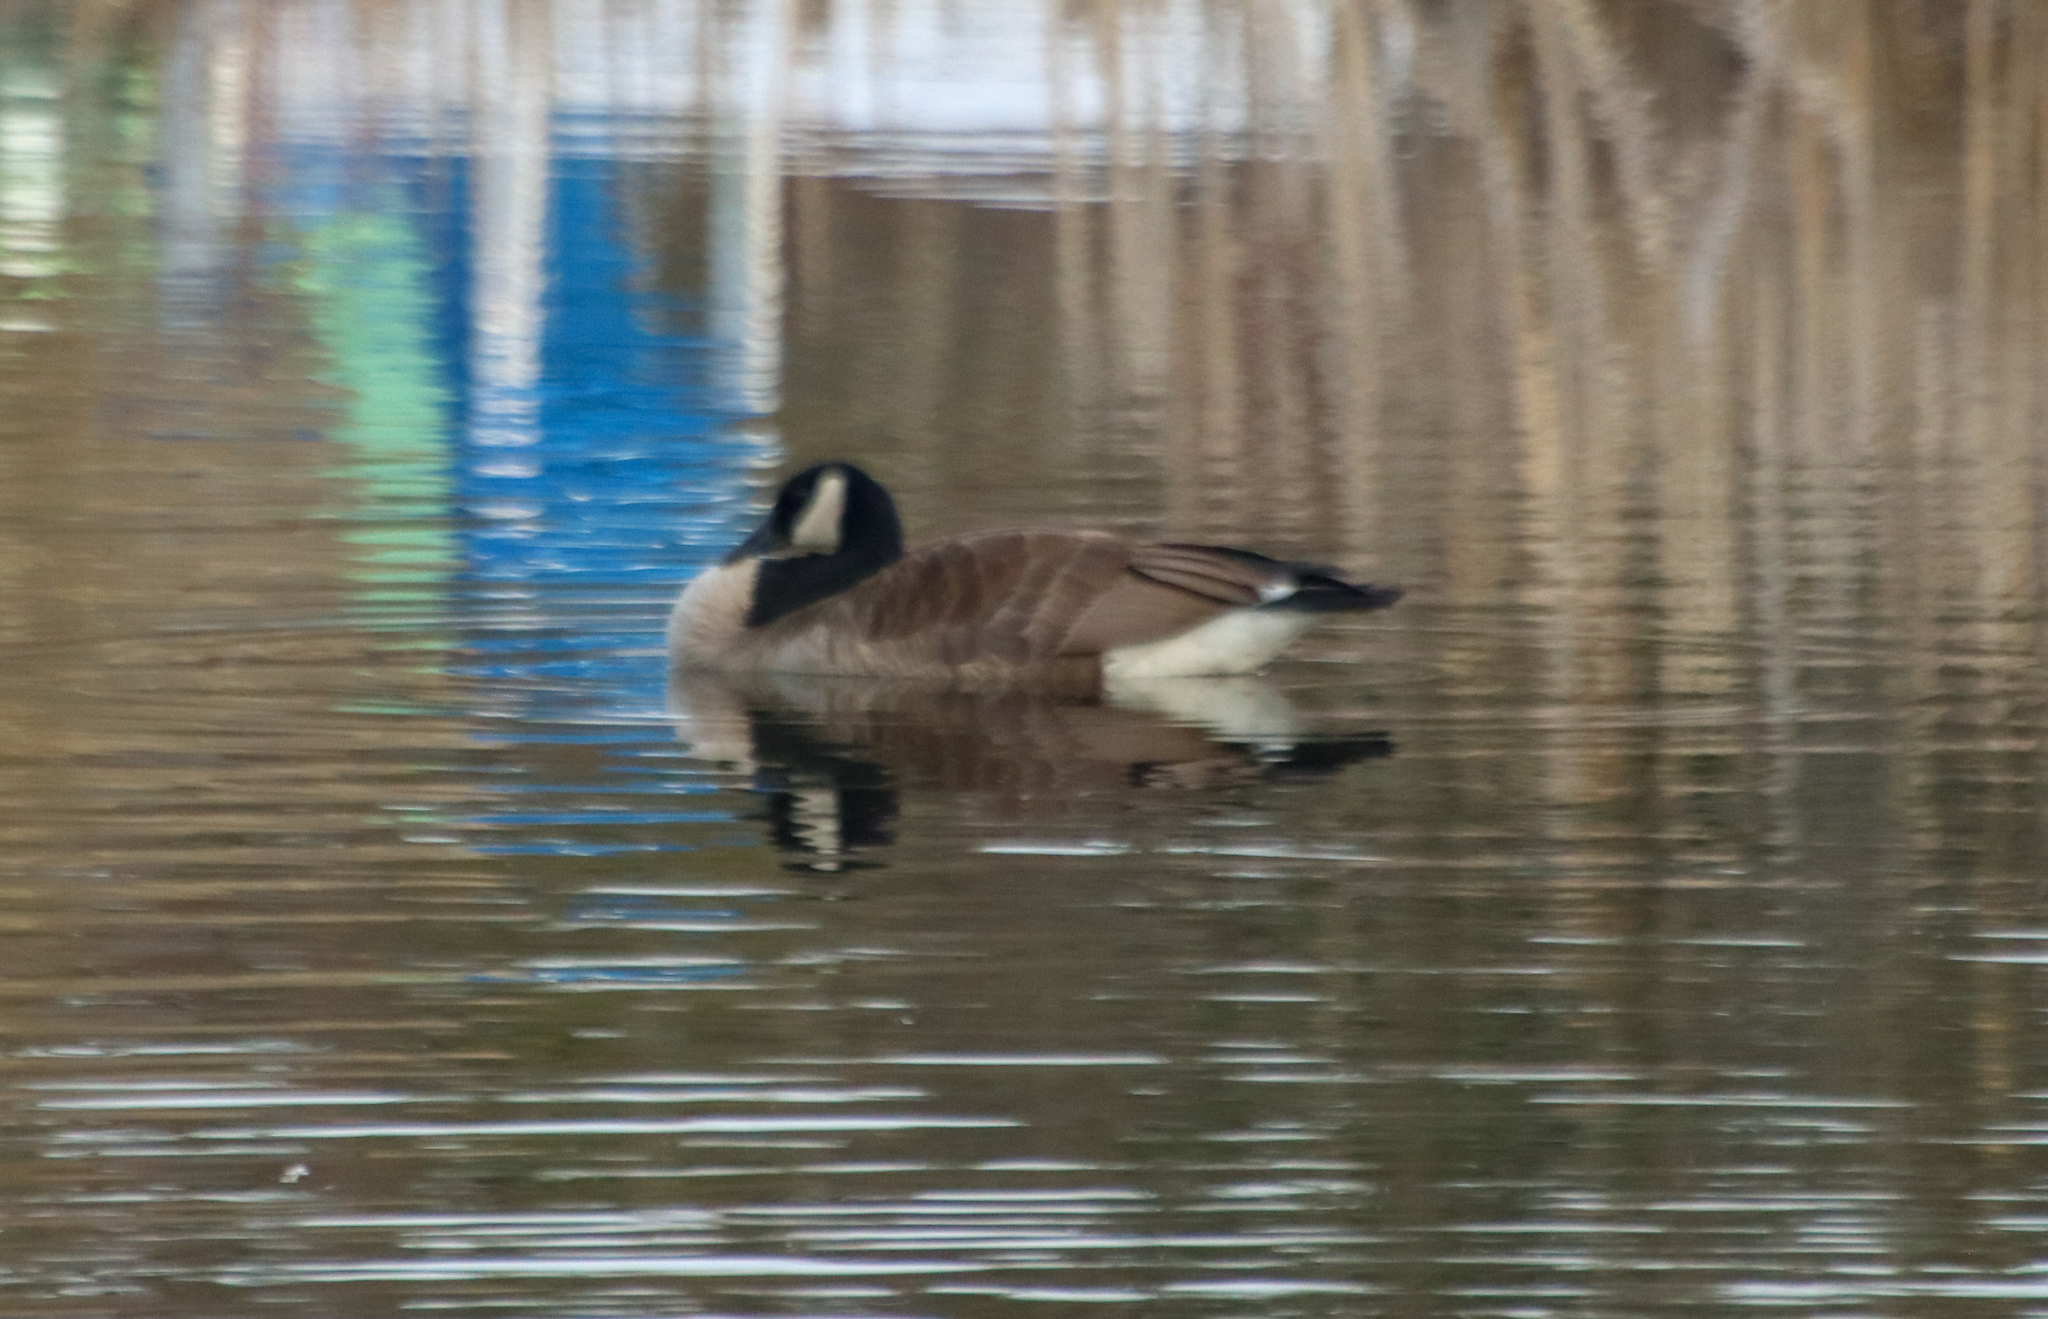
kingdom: Animalia
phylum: Chordata
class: Aves
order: Anseriformes
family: Anatidae
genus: Branta
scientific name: Branta canadensis
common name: Canada goose
